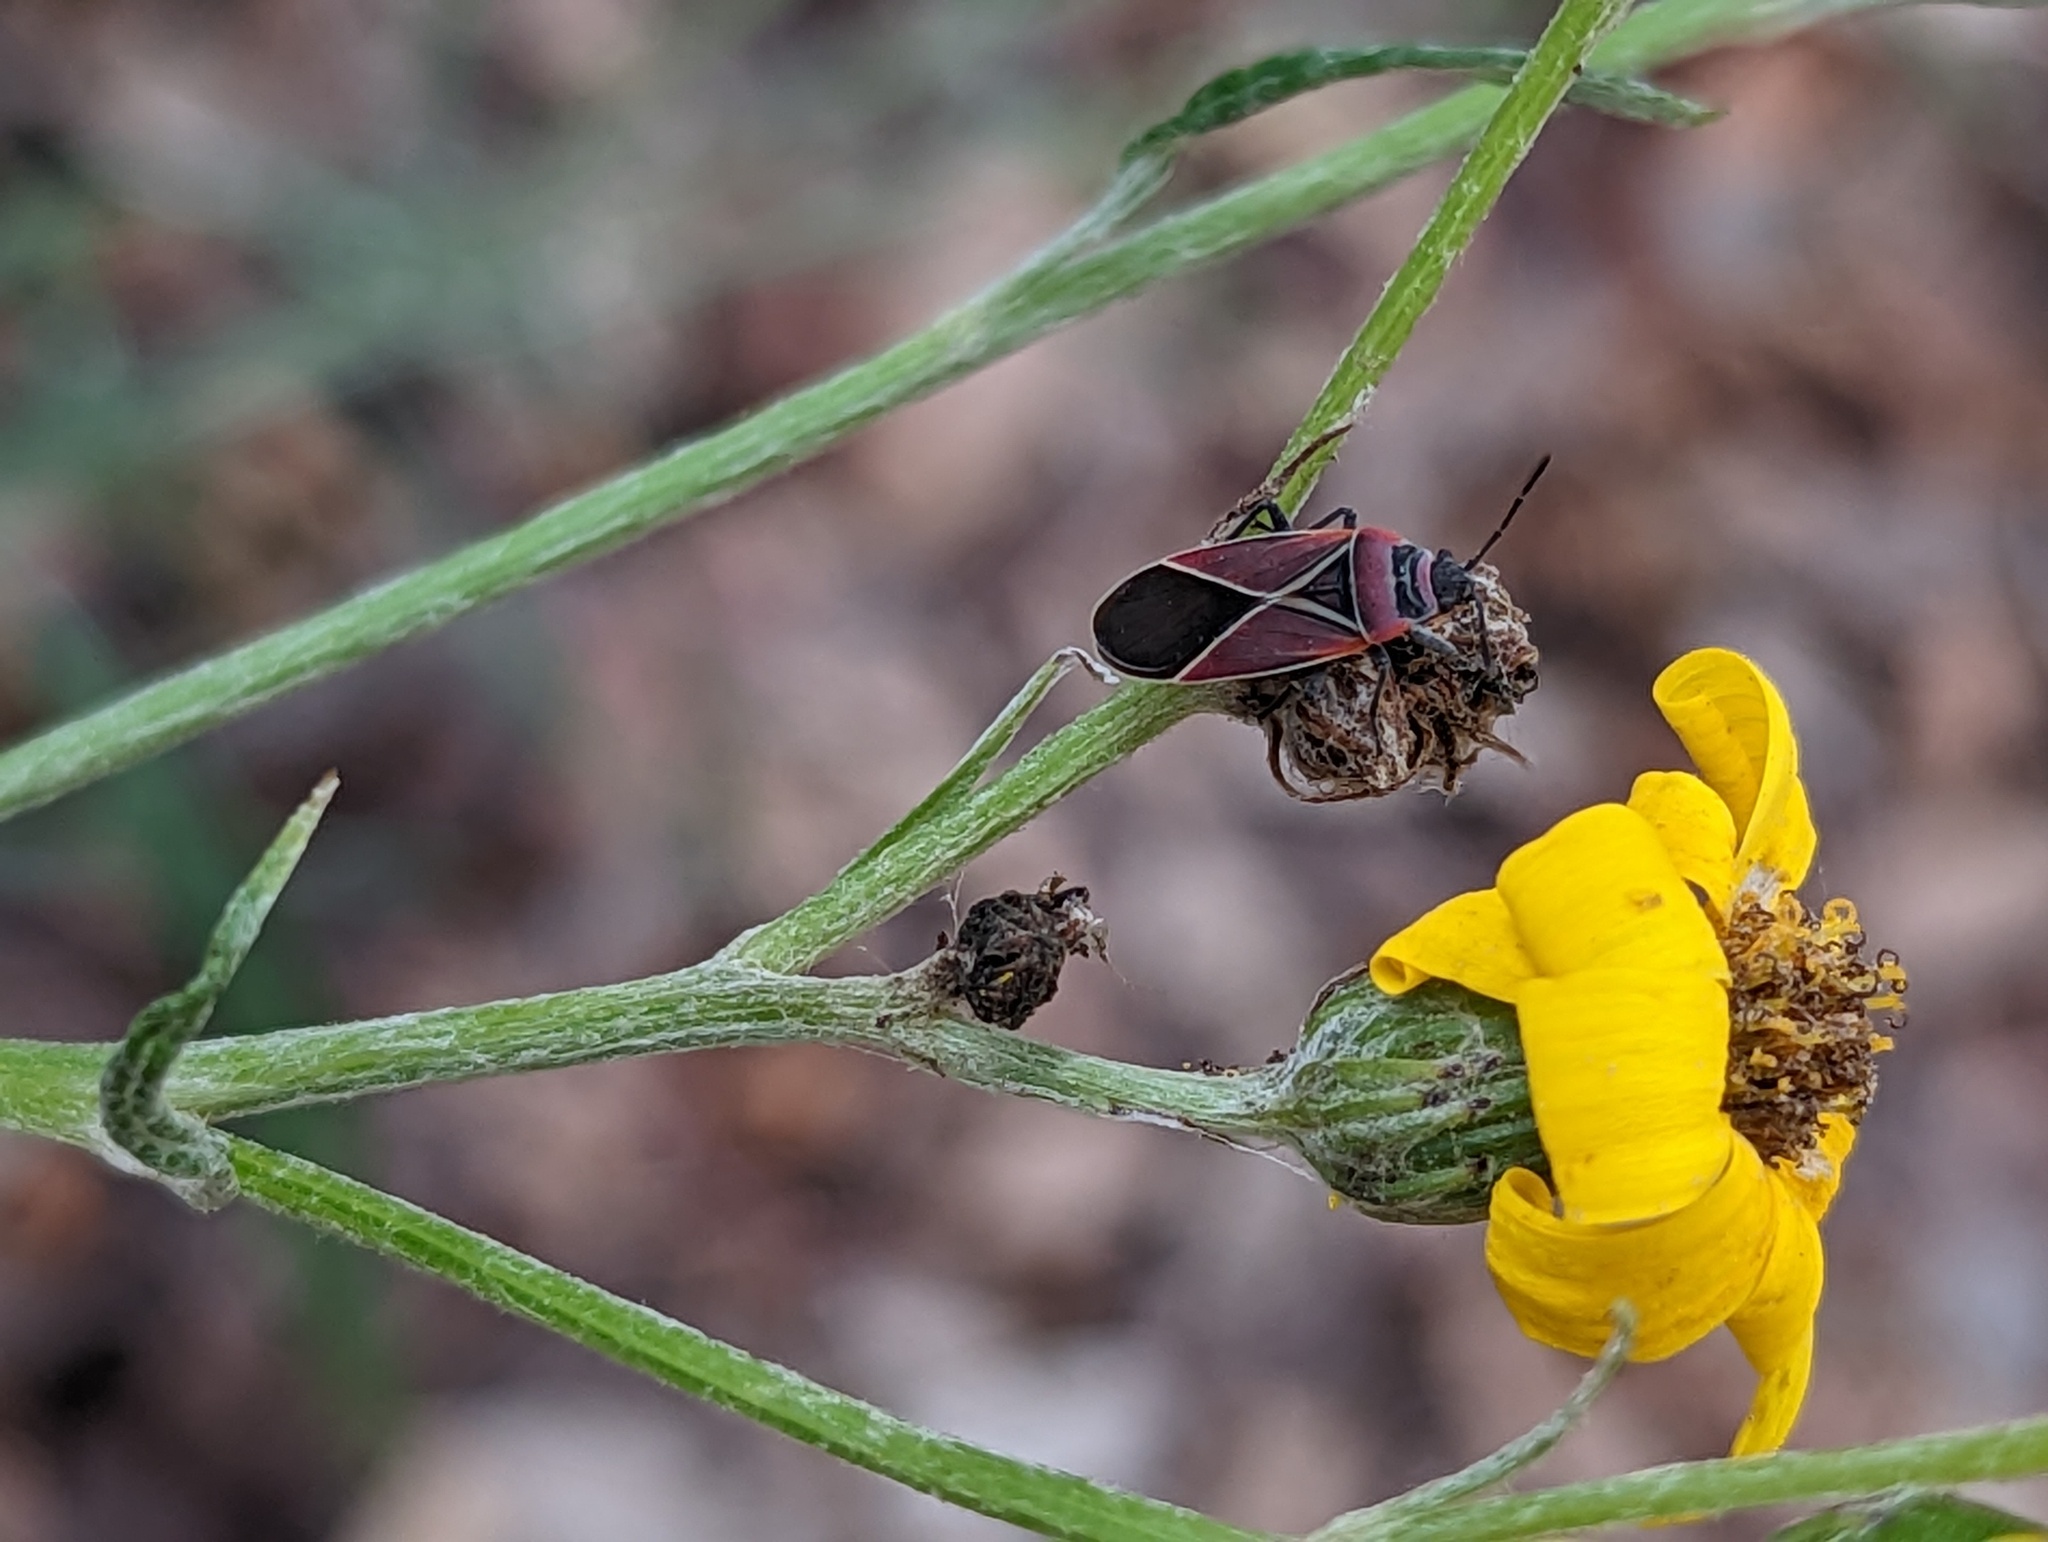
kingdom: Animalia
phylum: Arthropoda
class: Insecta
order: Hemiptera
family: Lygaeidae
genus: Neacoryphus
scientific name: Neacoryphus bicrucis
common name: Lygaeid bug
